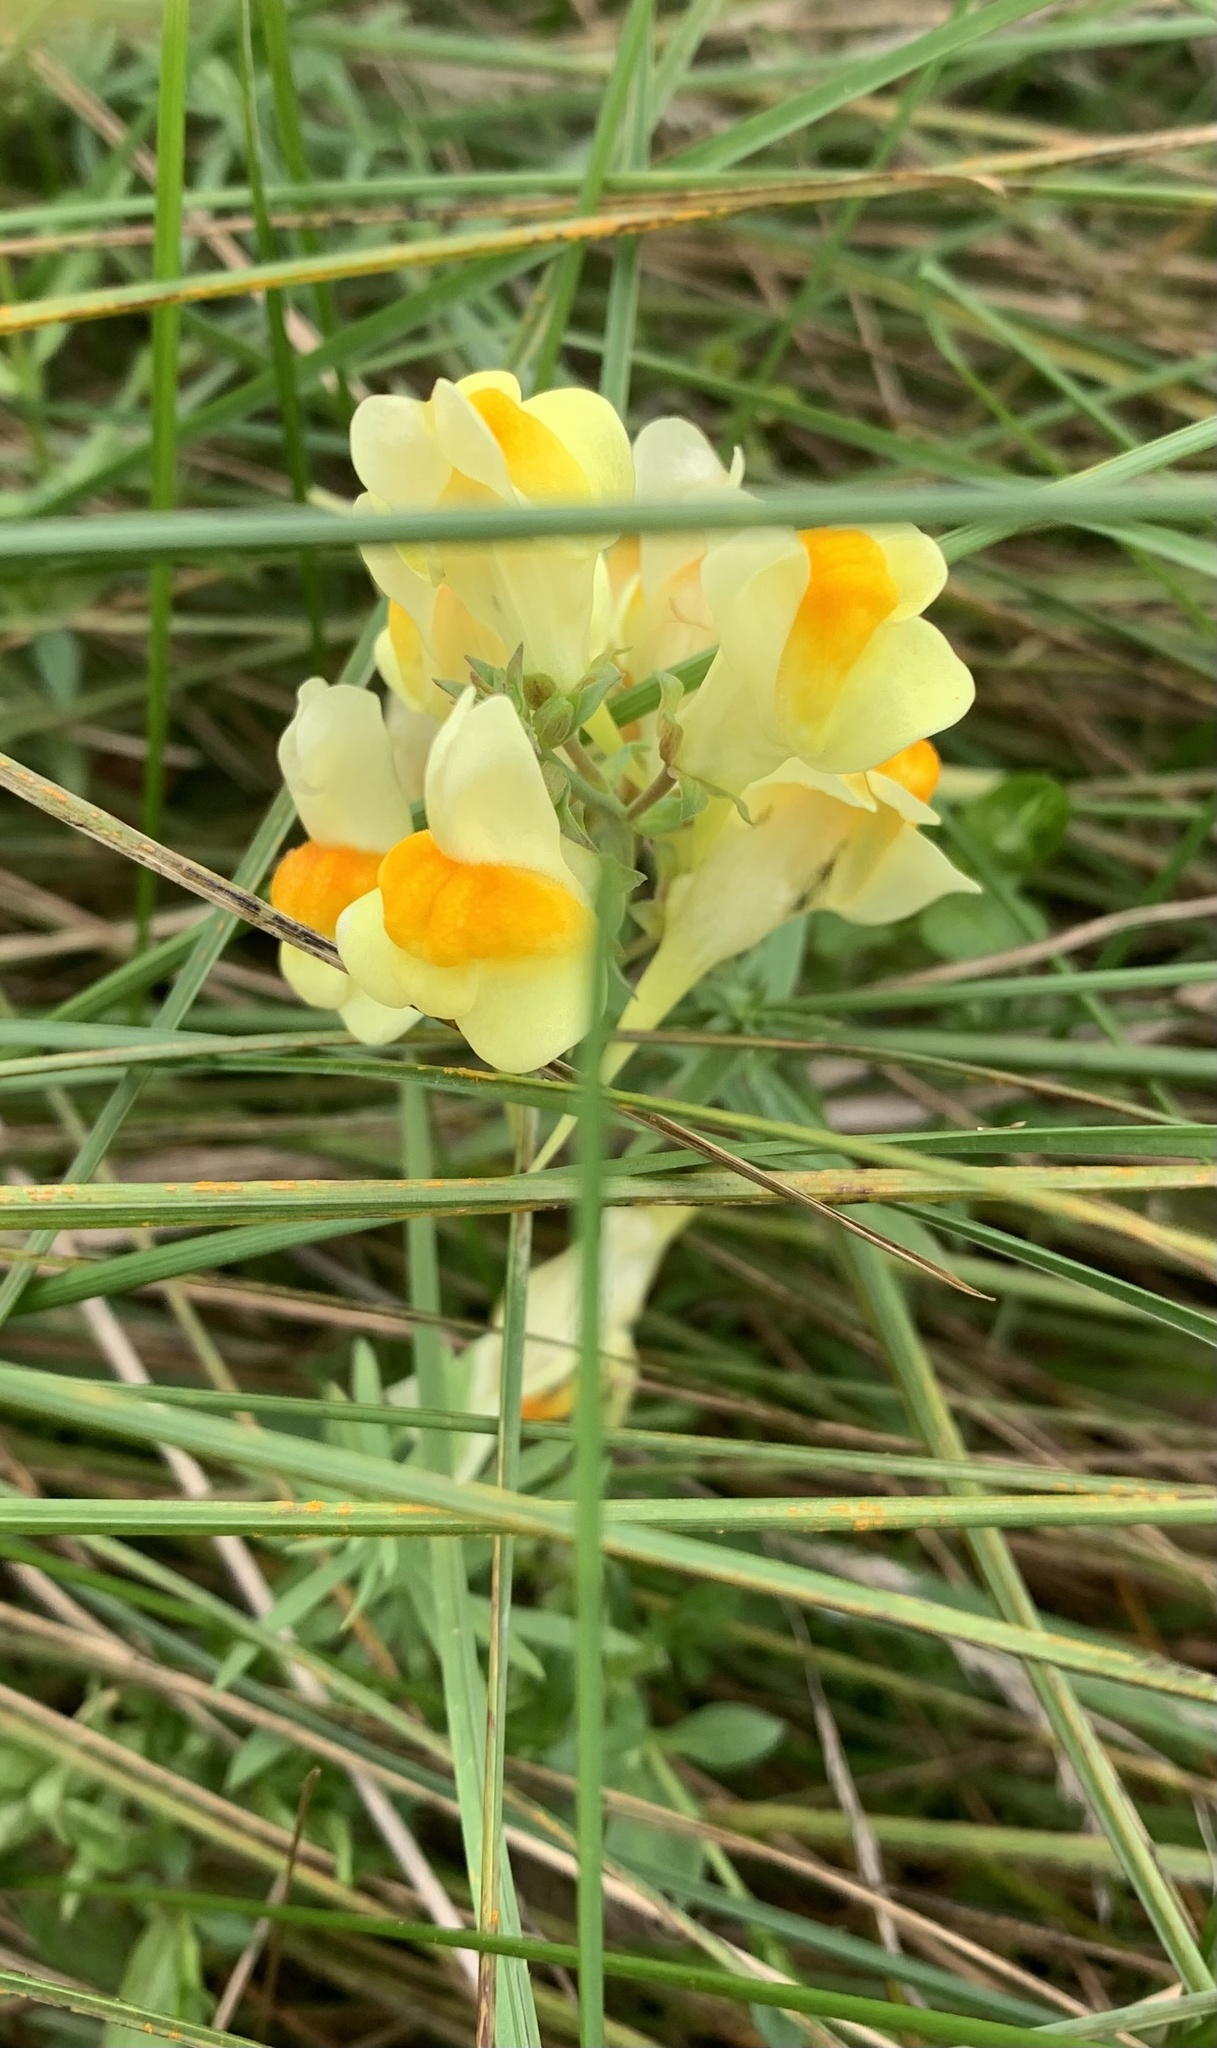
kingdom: Plantae
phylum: Tracheophyta
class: Magnoliopsida
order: Lamiales
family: Plantaginaceae
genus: Linaria
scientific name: Linaria vulgaris
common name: Butter and eggs
